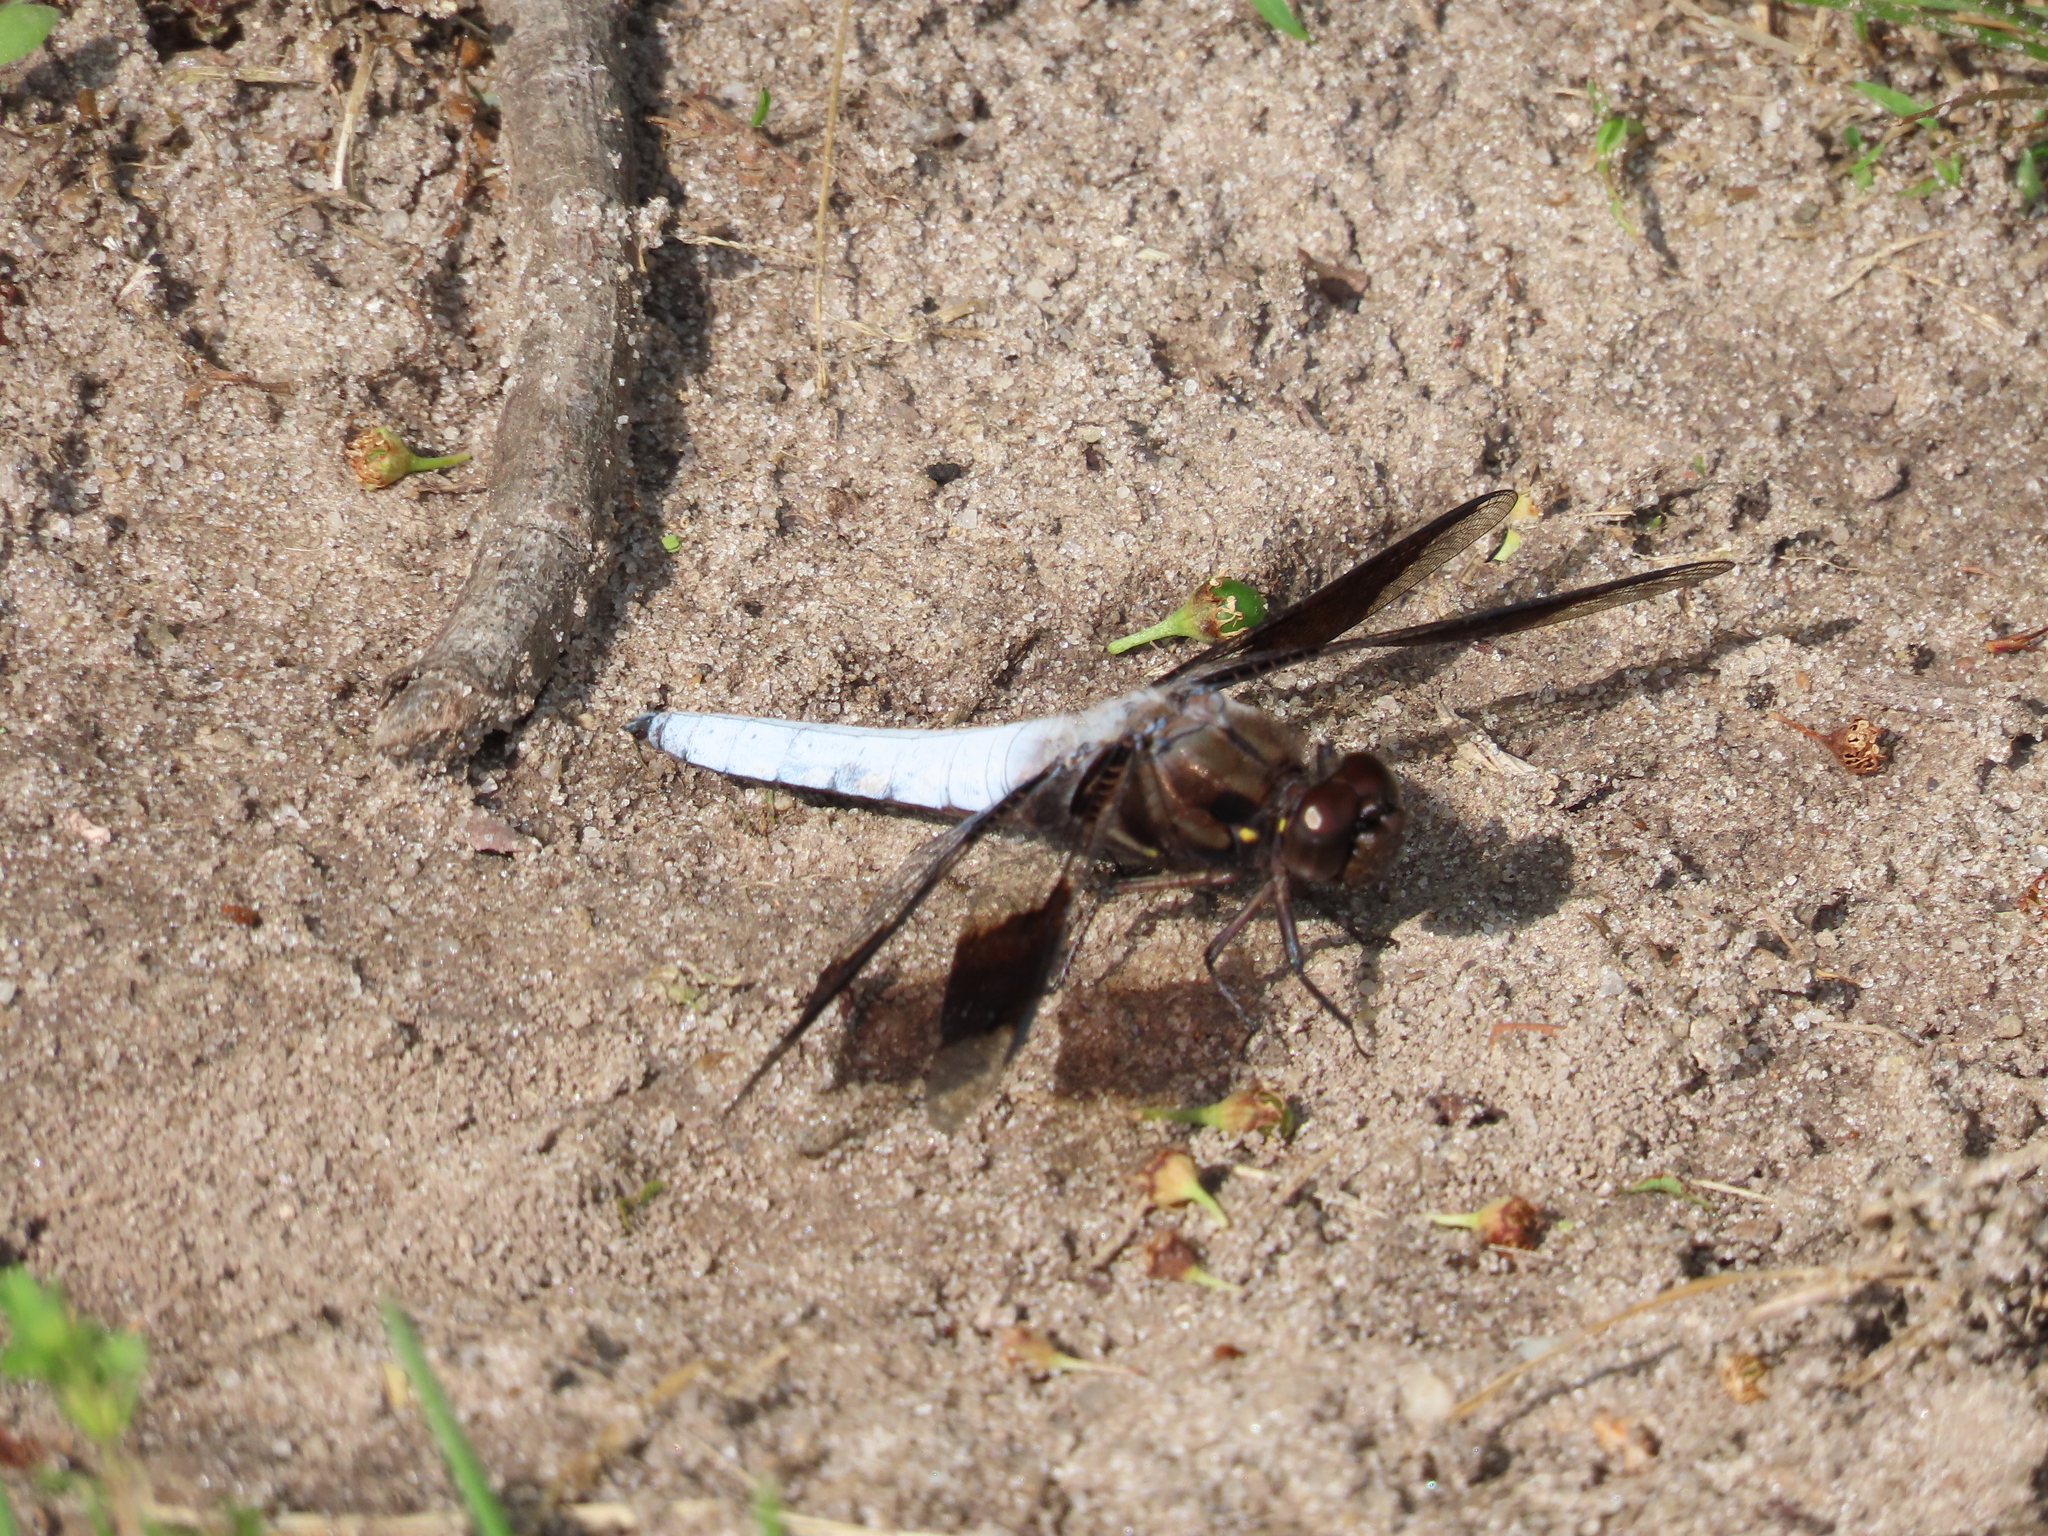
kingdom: Animalia
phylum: Arthropoda
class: Insecta
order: Odonata
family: Libellulidae
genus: Plathemis
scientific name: Plathemis lydia
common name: Common whitetail
